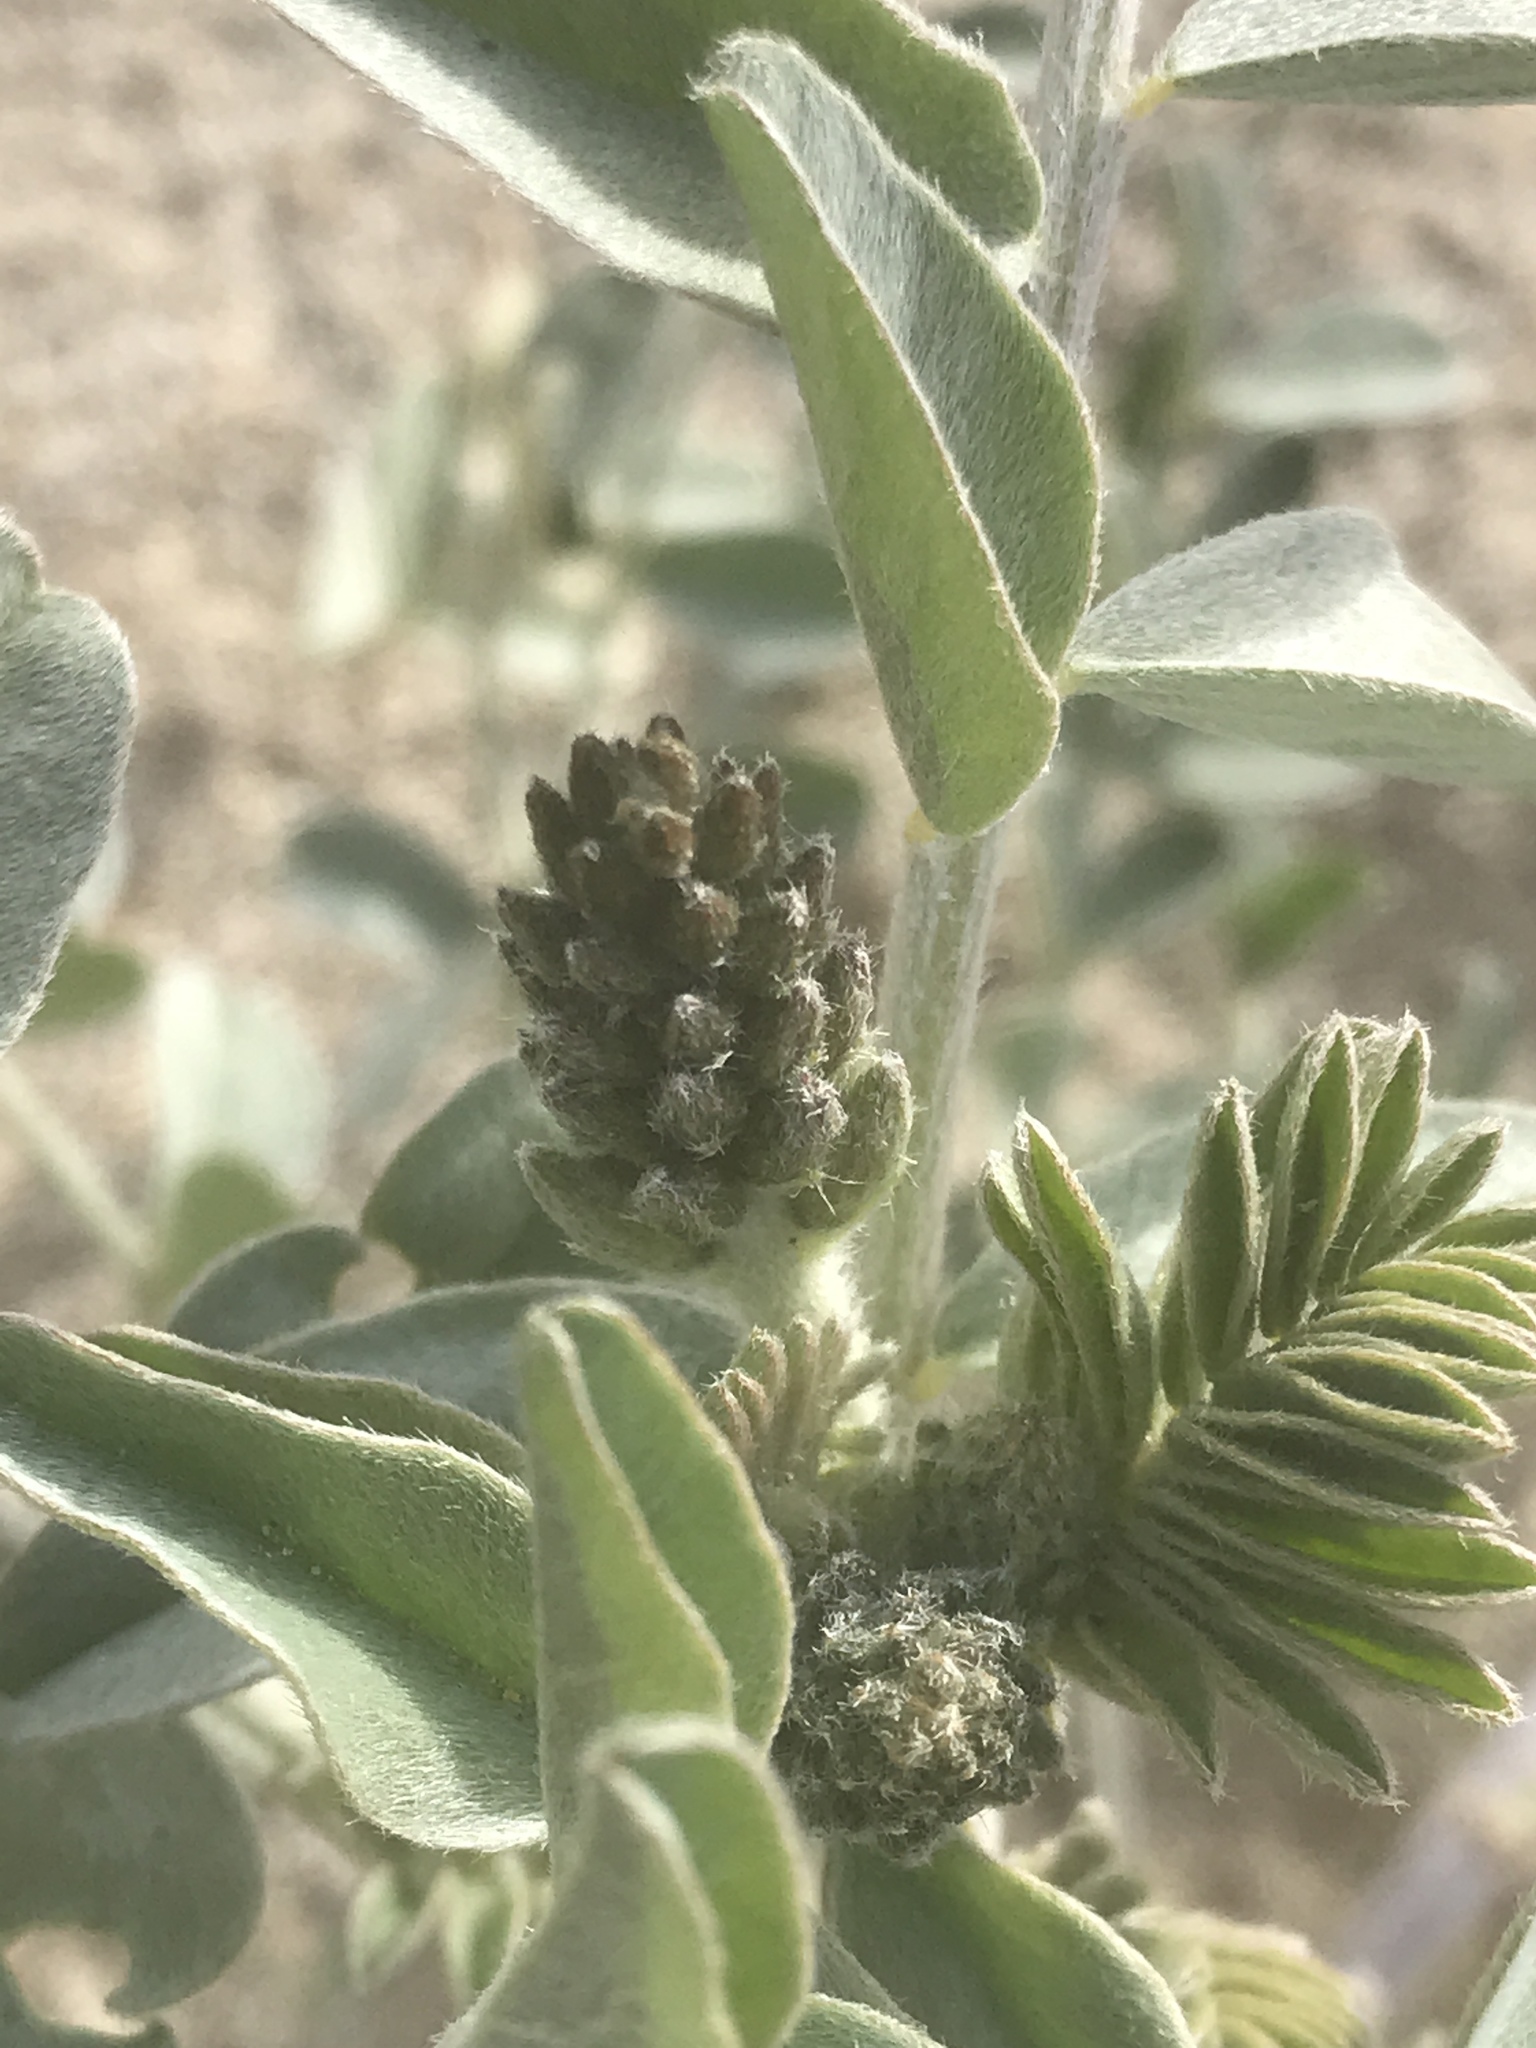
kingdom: Plantae
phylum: Tracheophyta
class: Magnoliopsida
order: Fabales
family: Fabaceae
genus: Astragalus
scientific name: Astragalus lentiginosus
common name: Freckled milkvetch
